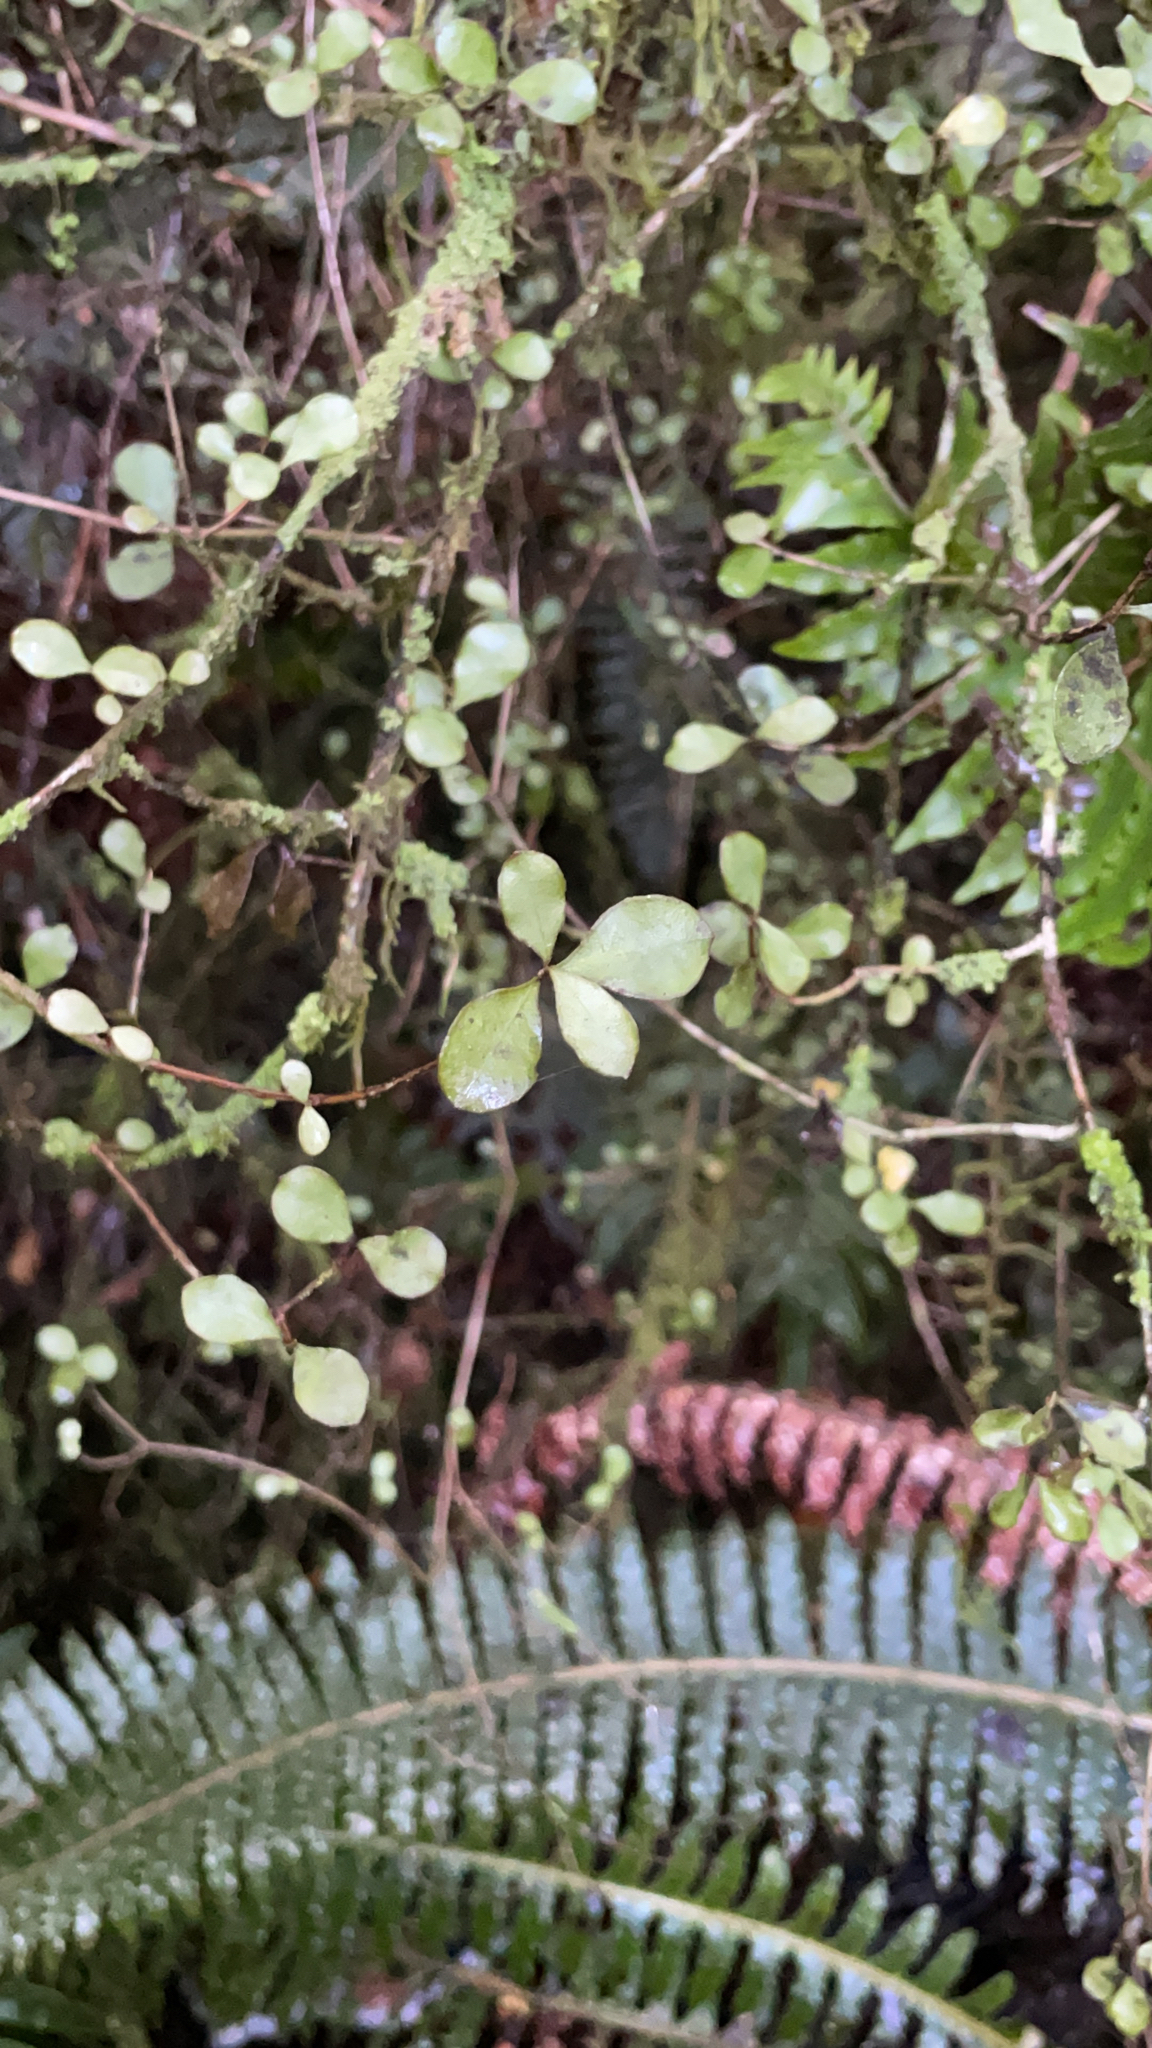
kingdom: Plantae
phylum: Tracheophyta
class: Magnoliopsida
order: Myrtales
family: Myrtaceae
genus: Neomyrtus
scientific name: Neomyrtus pedunculata
